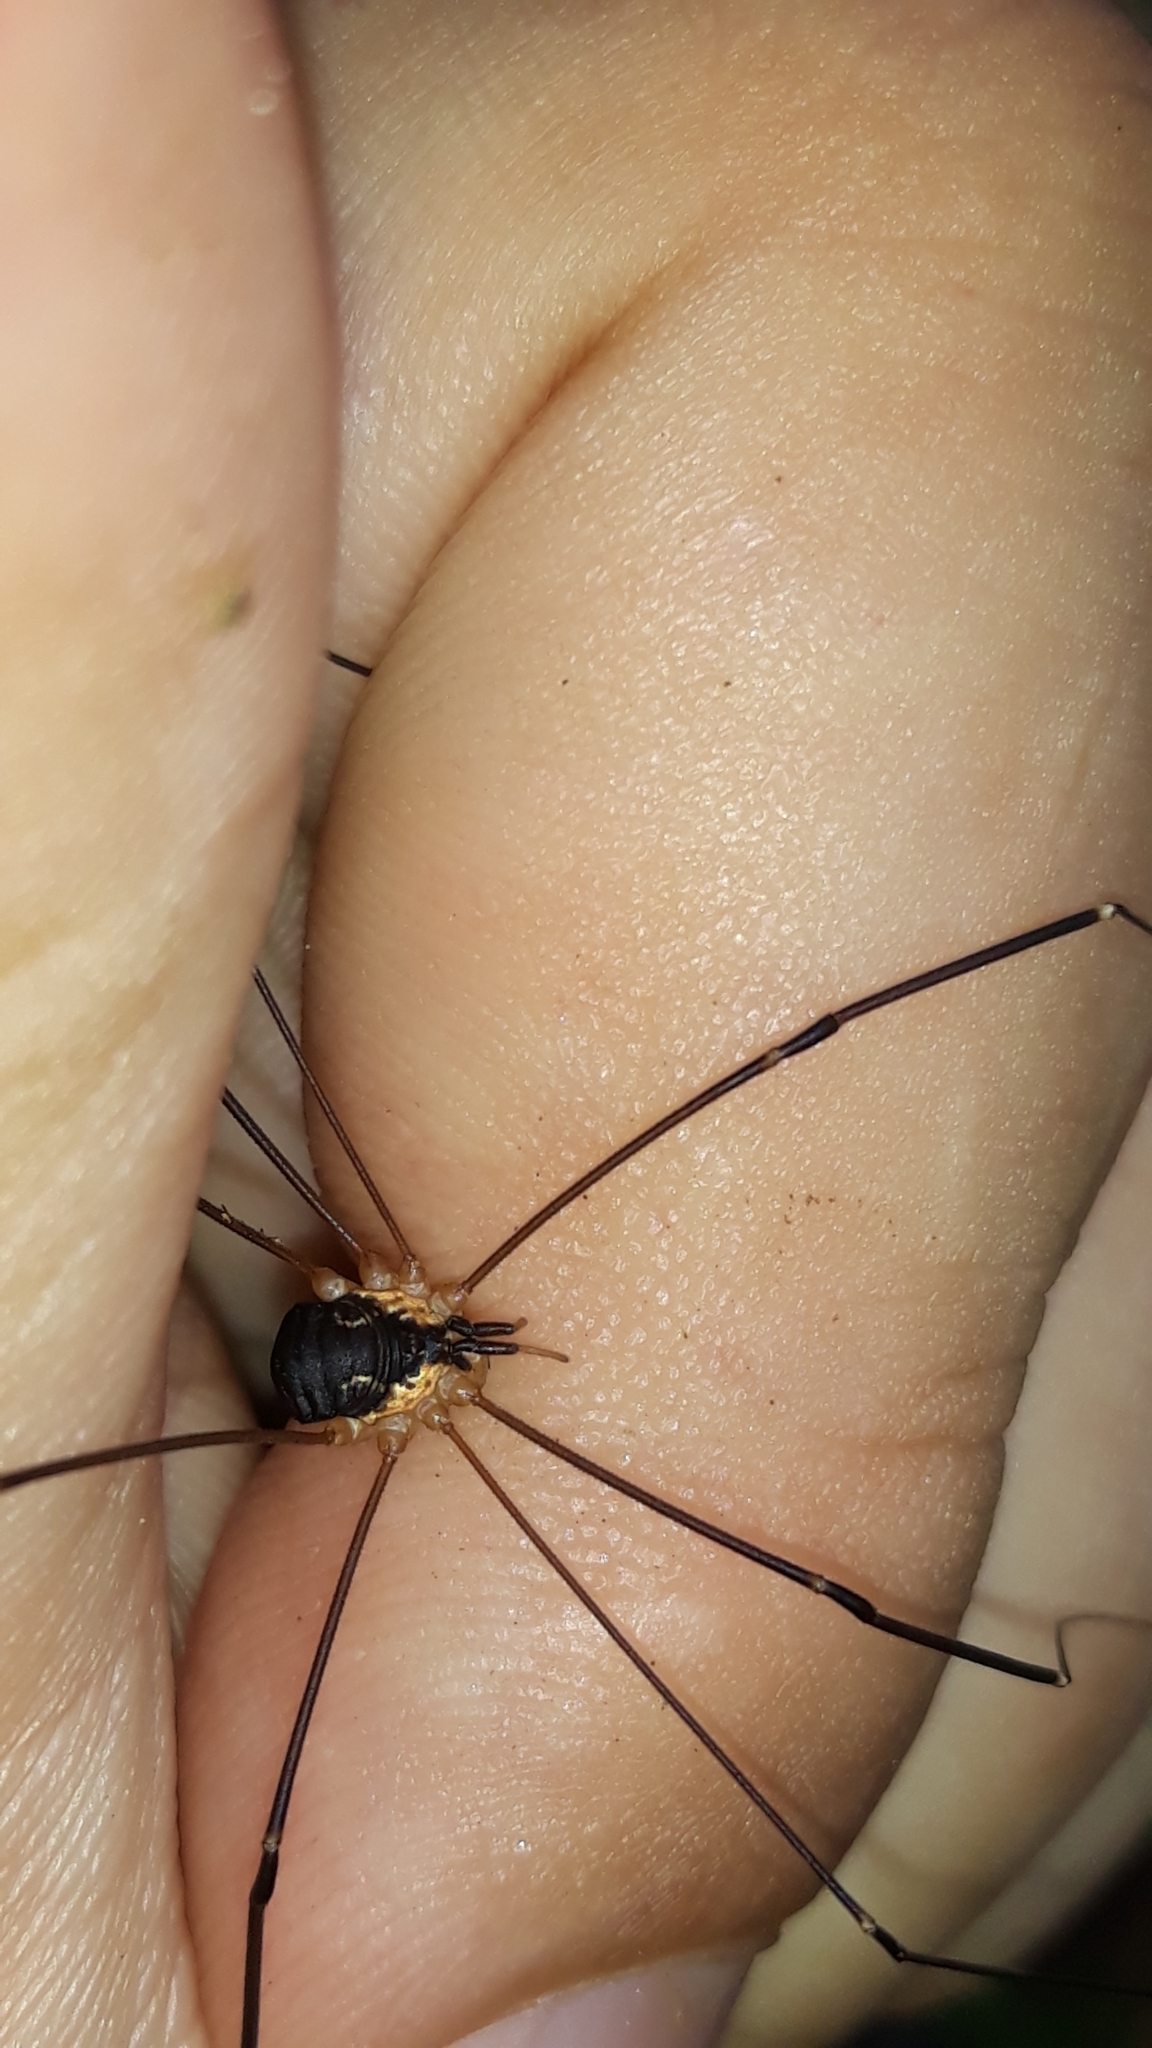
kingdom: Animalia
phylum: Arthropoda
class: Arachnida
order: Opiliones
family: Sclerosomatidae
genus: Leiobunum
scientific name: Leiobunum
